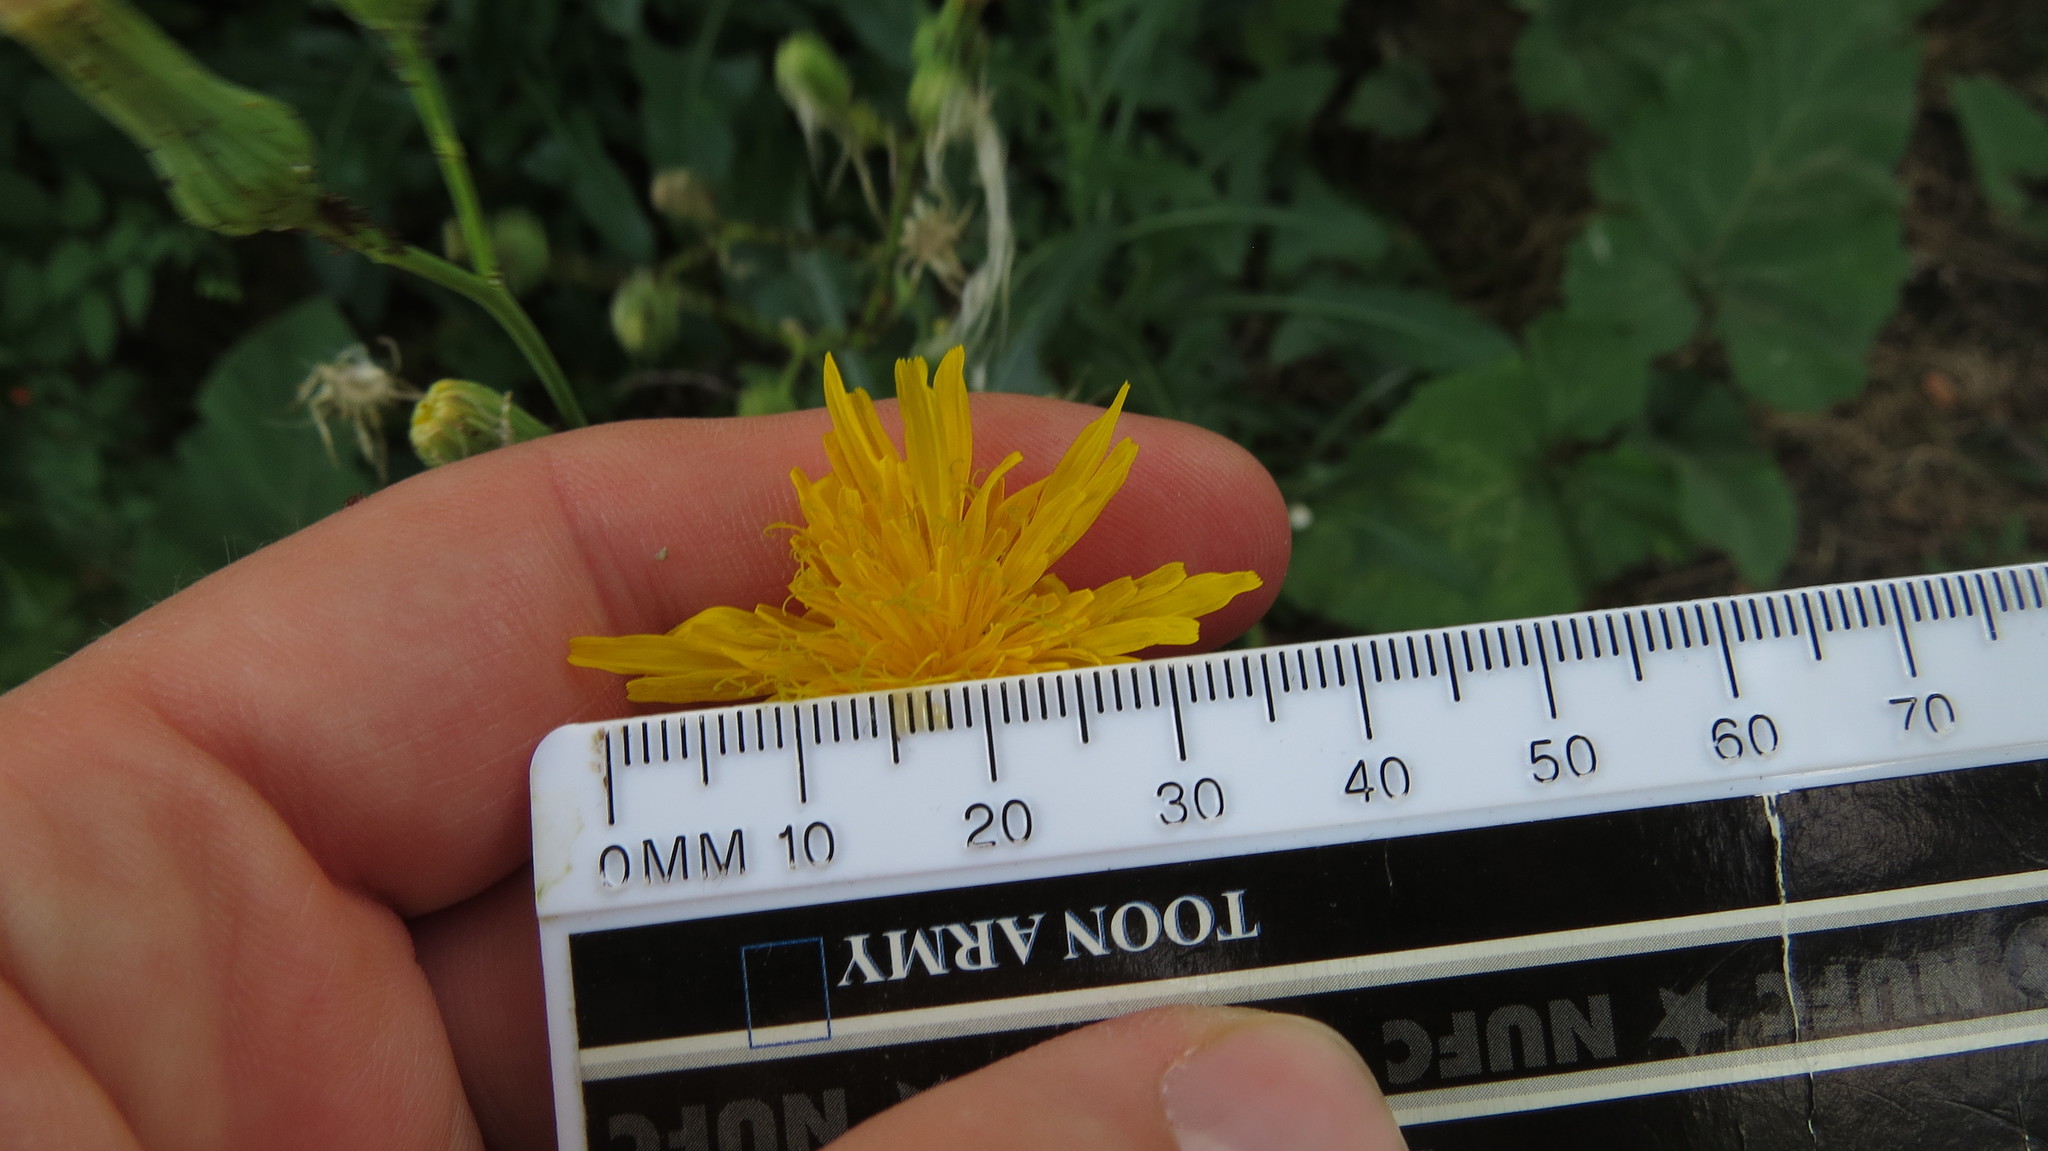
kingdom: Plantae
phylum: Tracheophyta
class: Magnoliopsida
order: Asterales
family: Asteraceae
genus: Sonchus
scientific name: Sonchus arvensis
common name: Perennial sow-thistle
